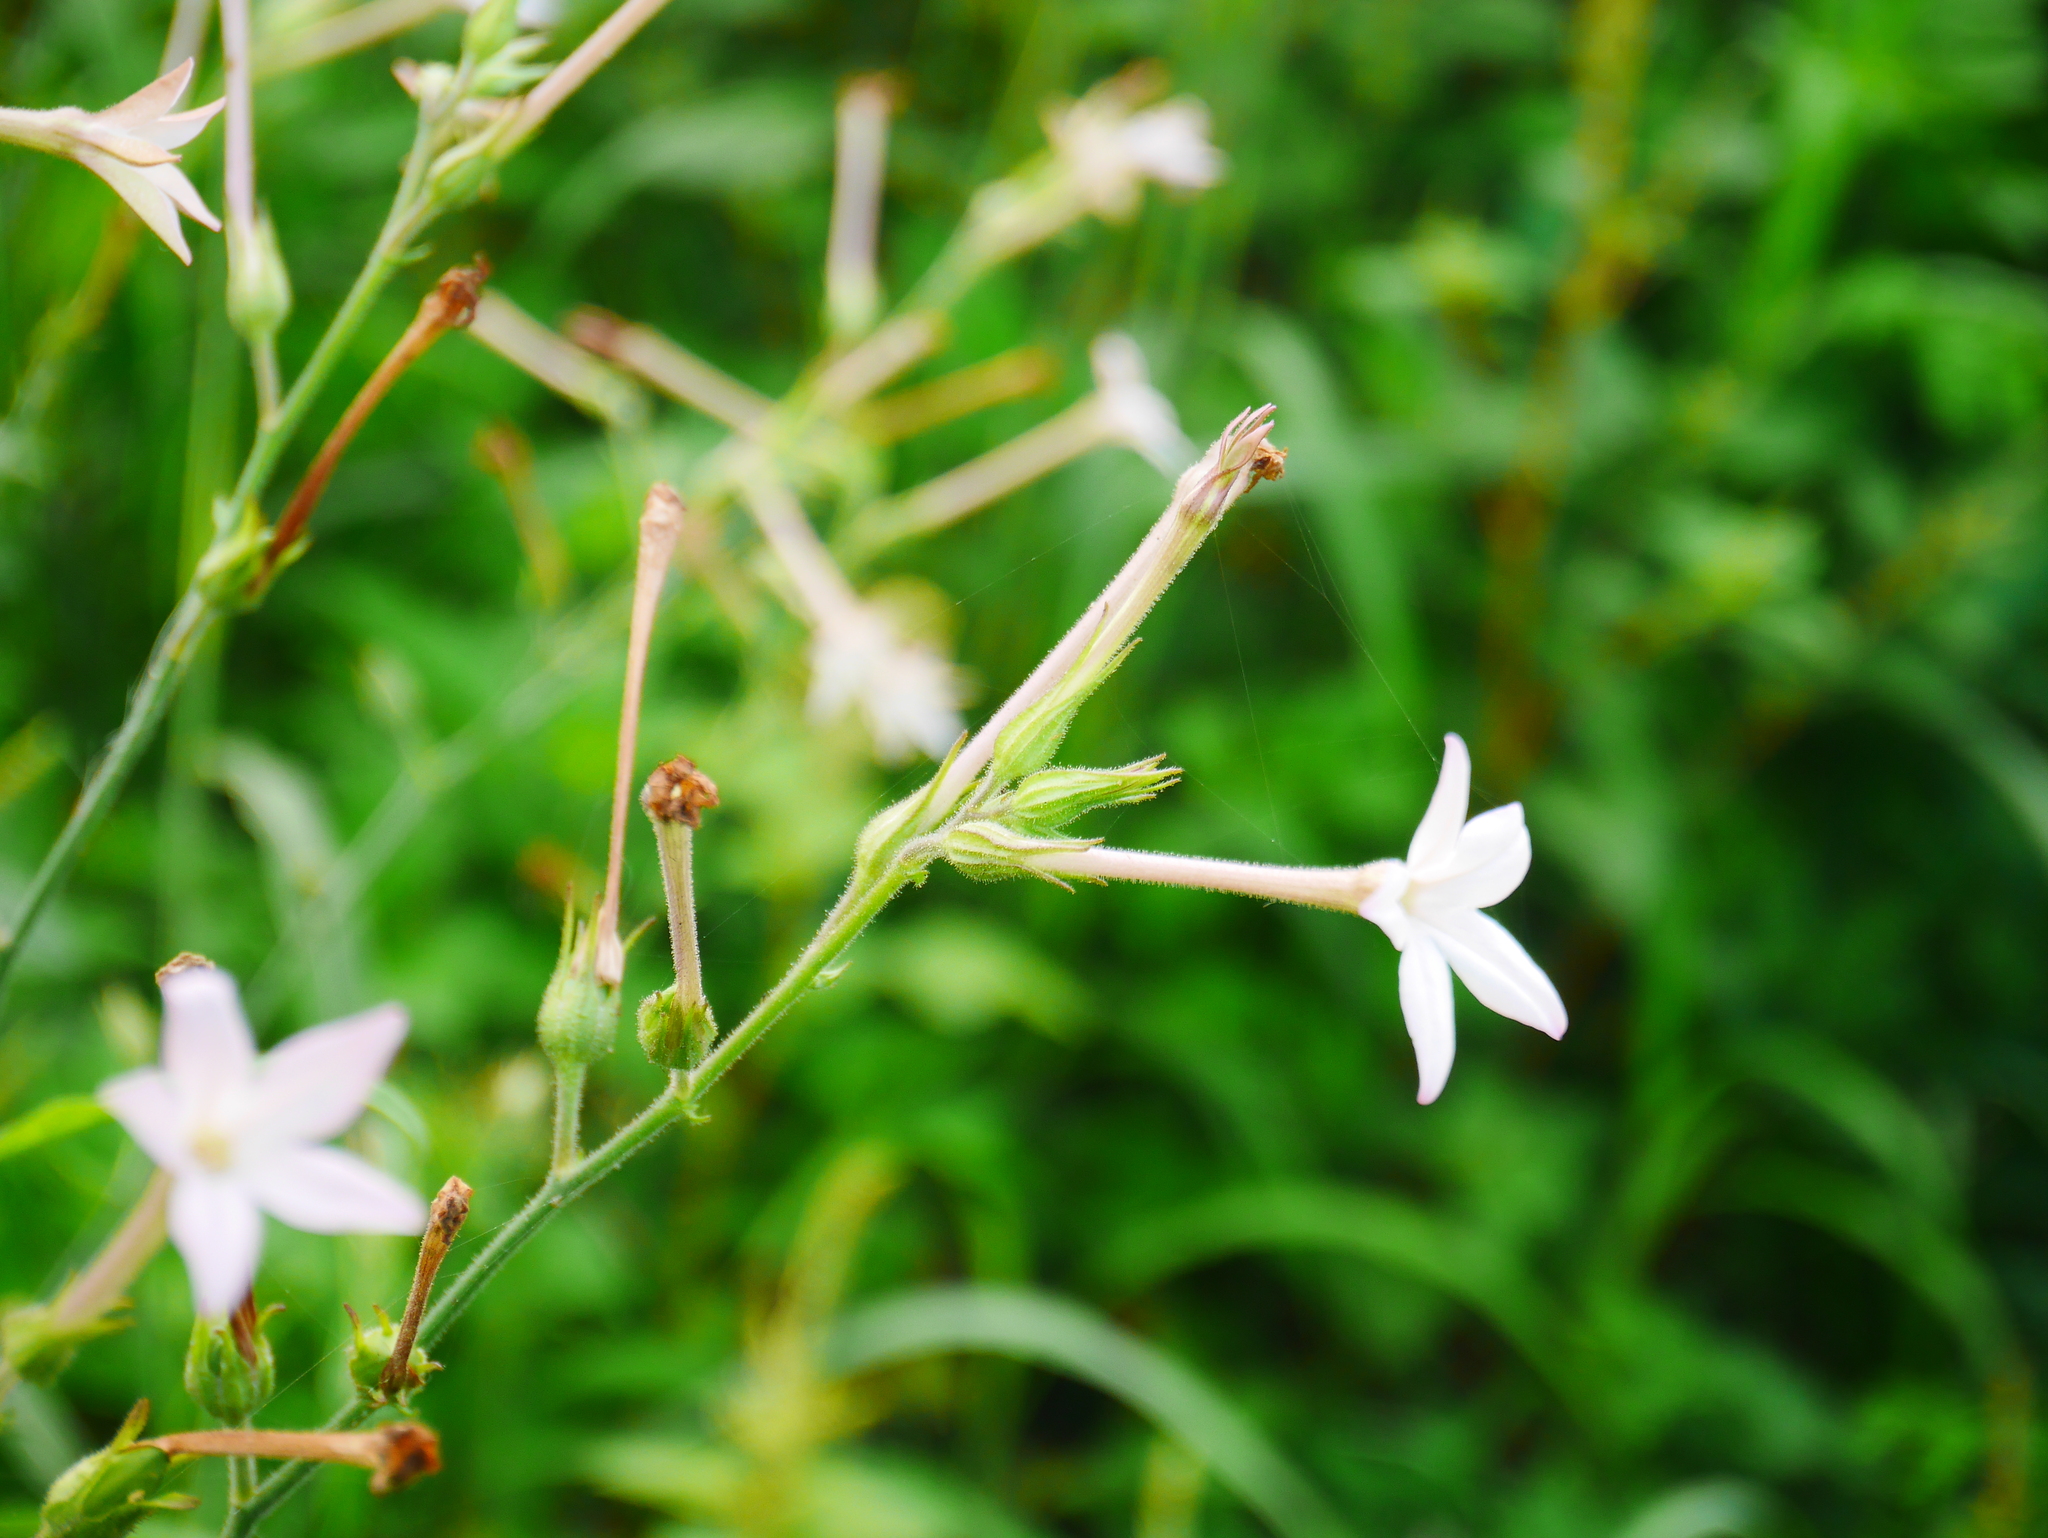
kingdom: Plantae
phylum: Tracheophyta
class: Magnoliopsida
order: Solanales
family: Solanaceae
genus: Nicotiana
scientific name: Nicotiana plumbaginifolia
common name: Tex-mex tobacco
